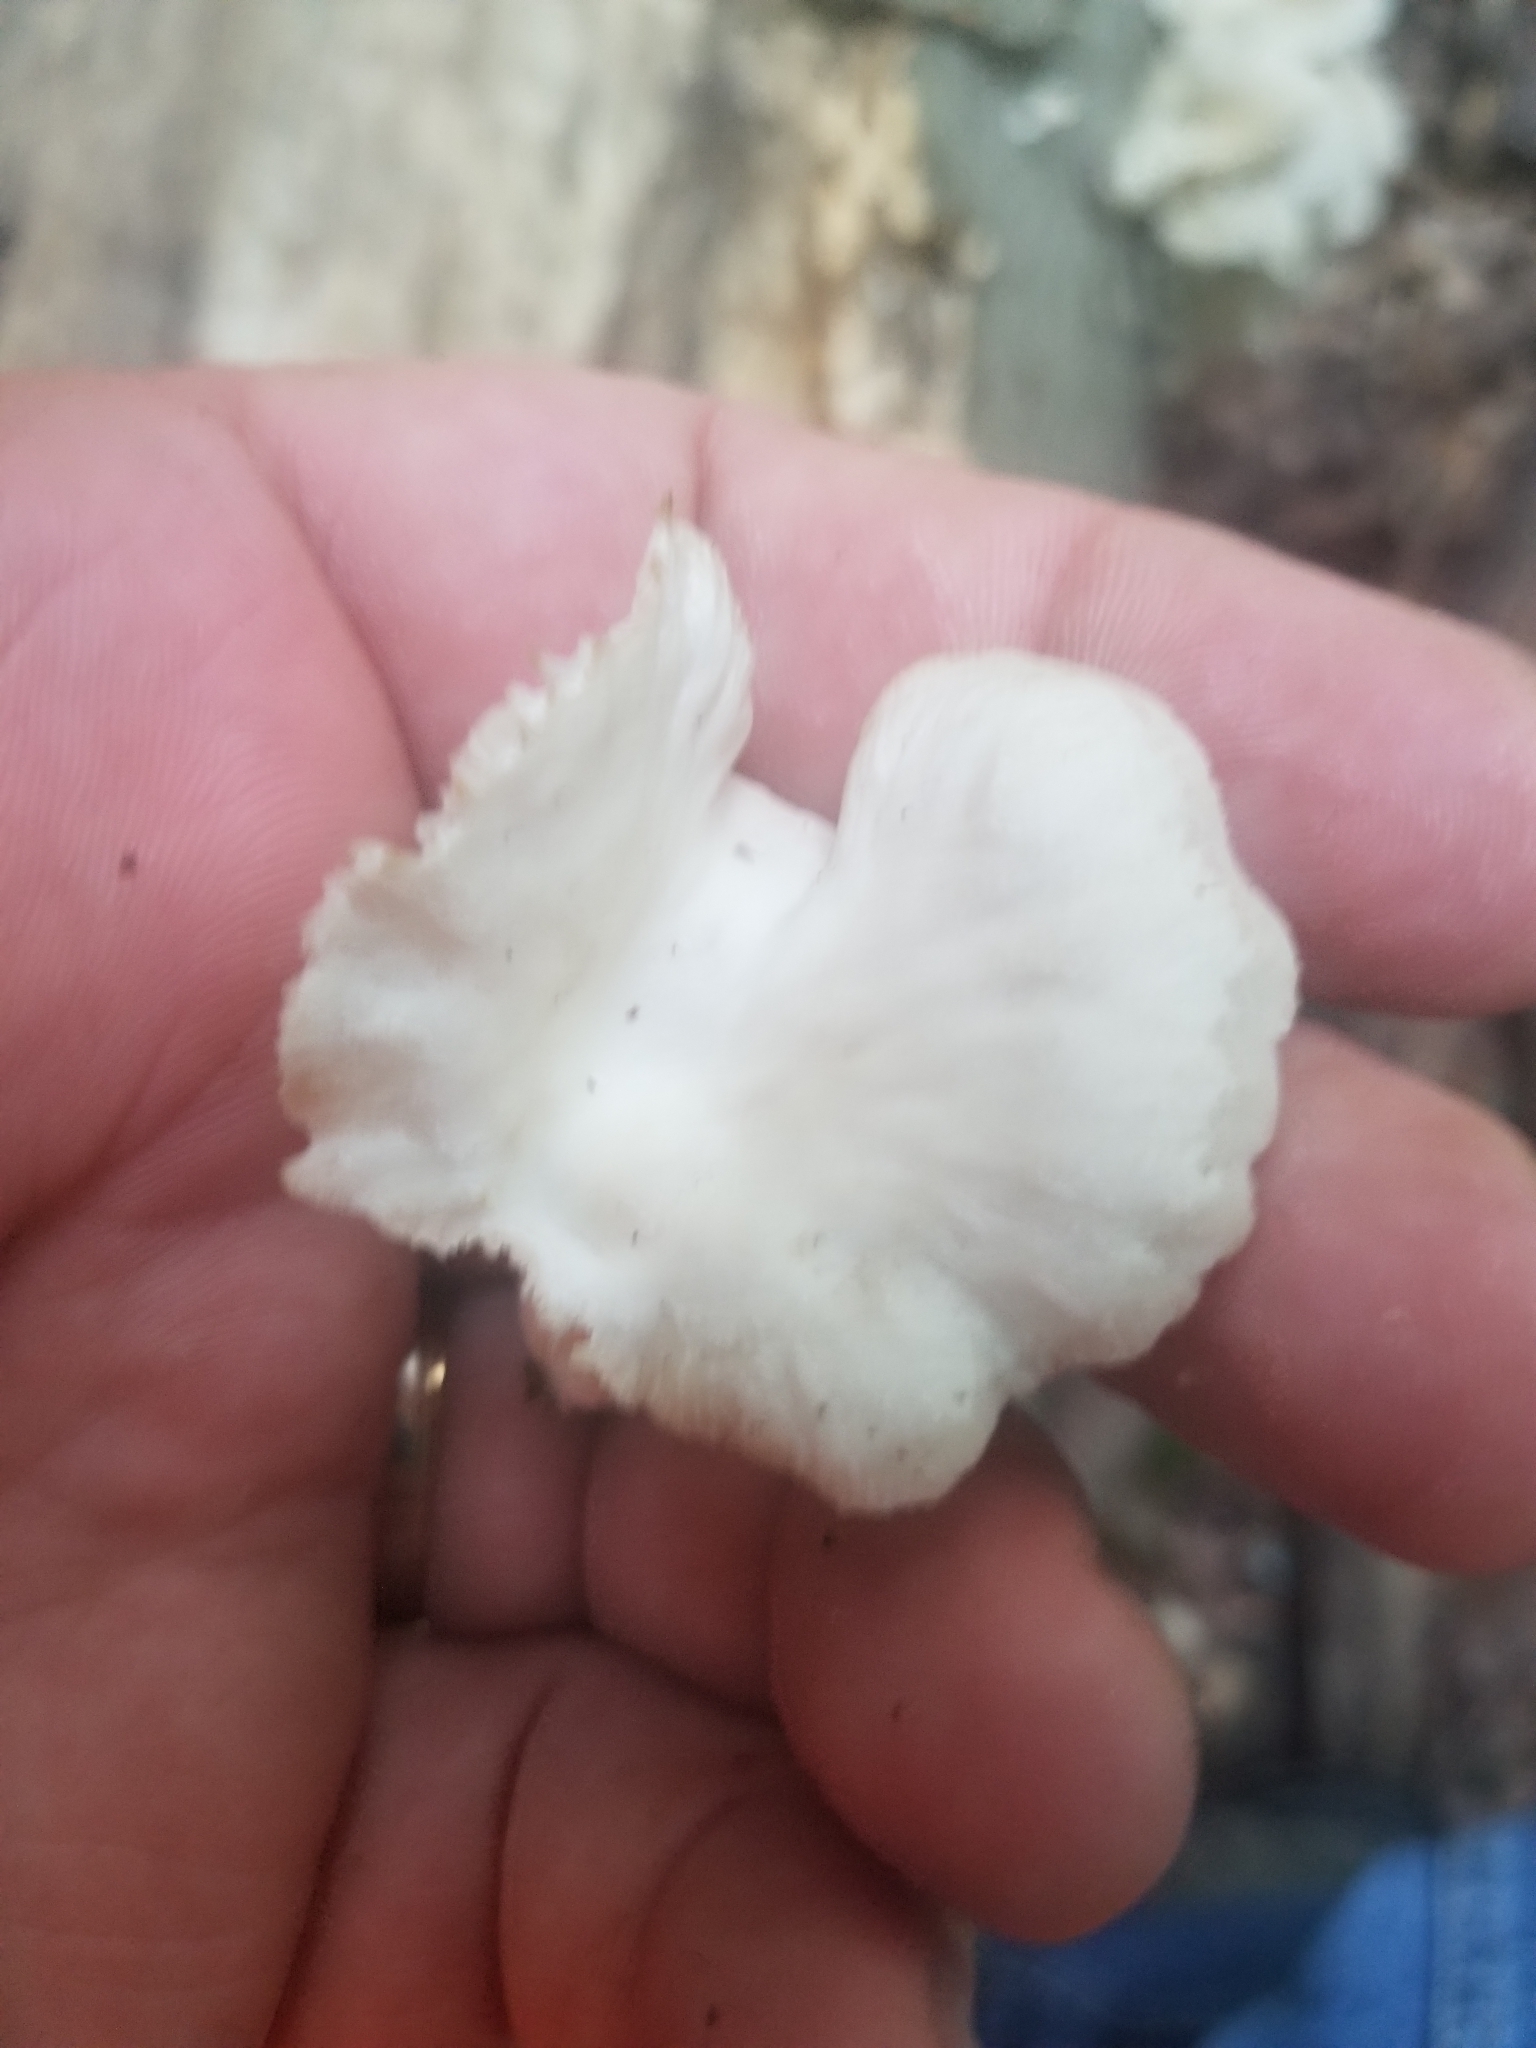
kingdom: Fungi
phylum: Basidiomycota
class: Agaricomycetes
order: Agaricales
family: Pleurotaceae
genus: Pleurotus
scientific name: Pleurotus pulmonarius
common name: Pale oyster
